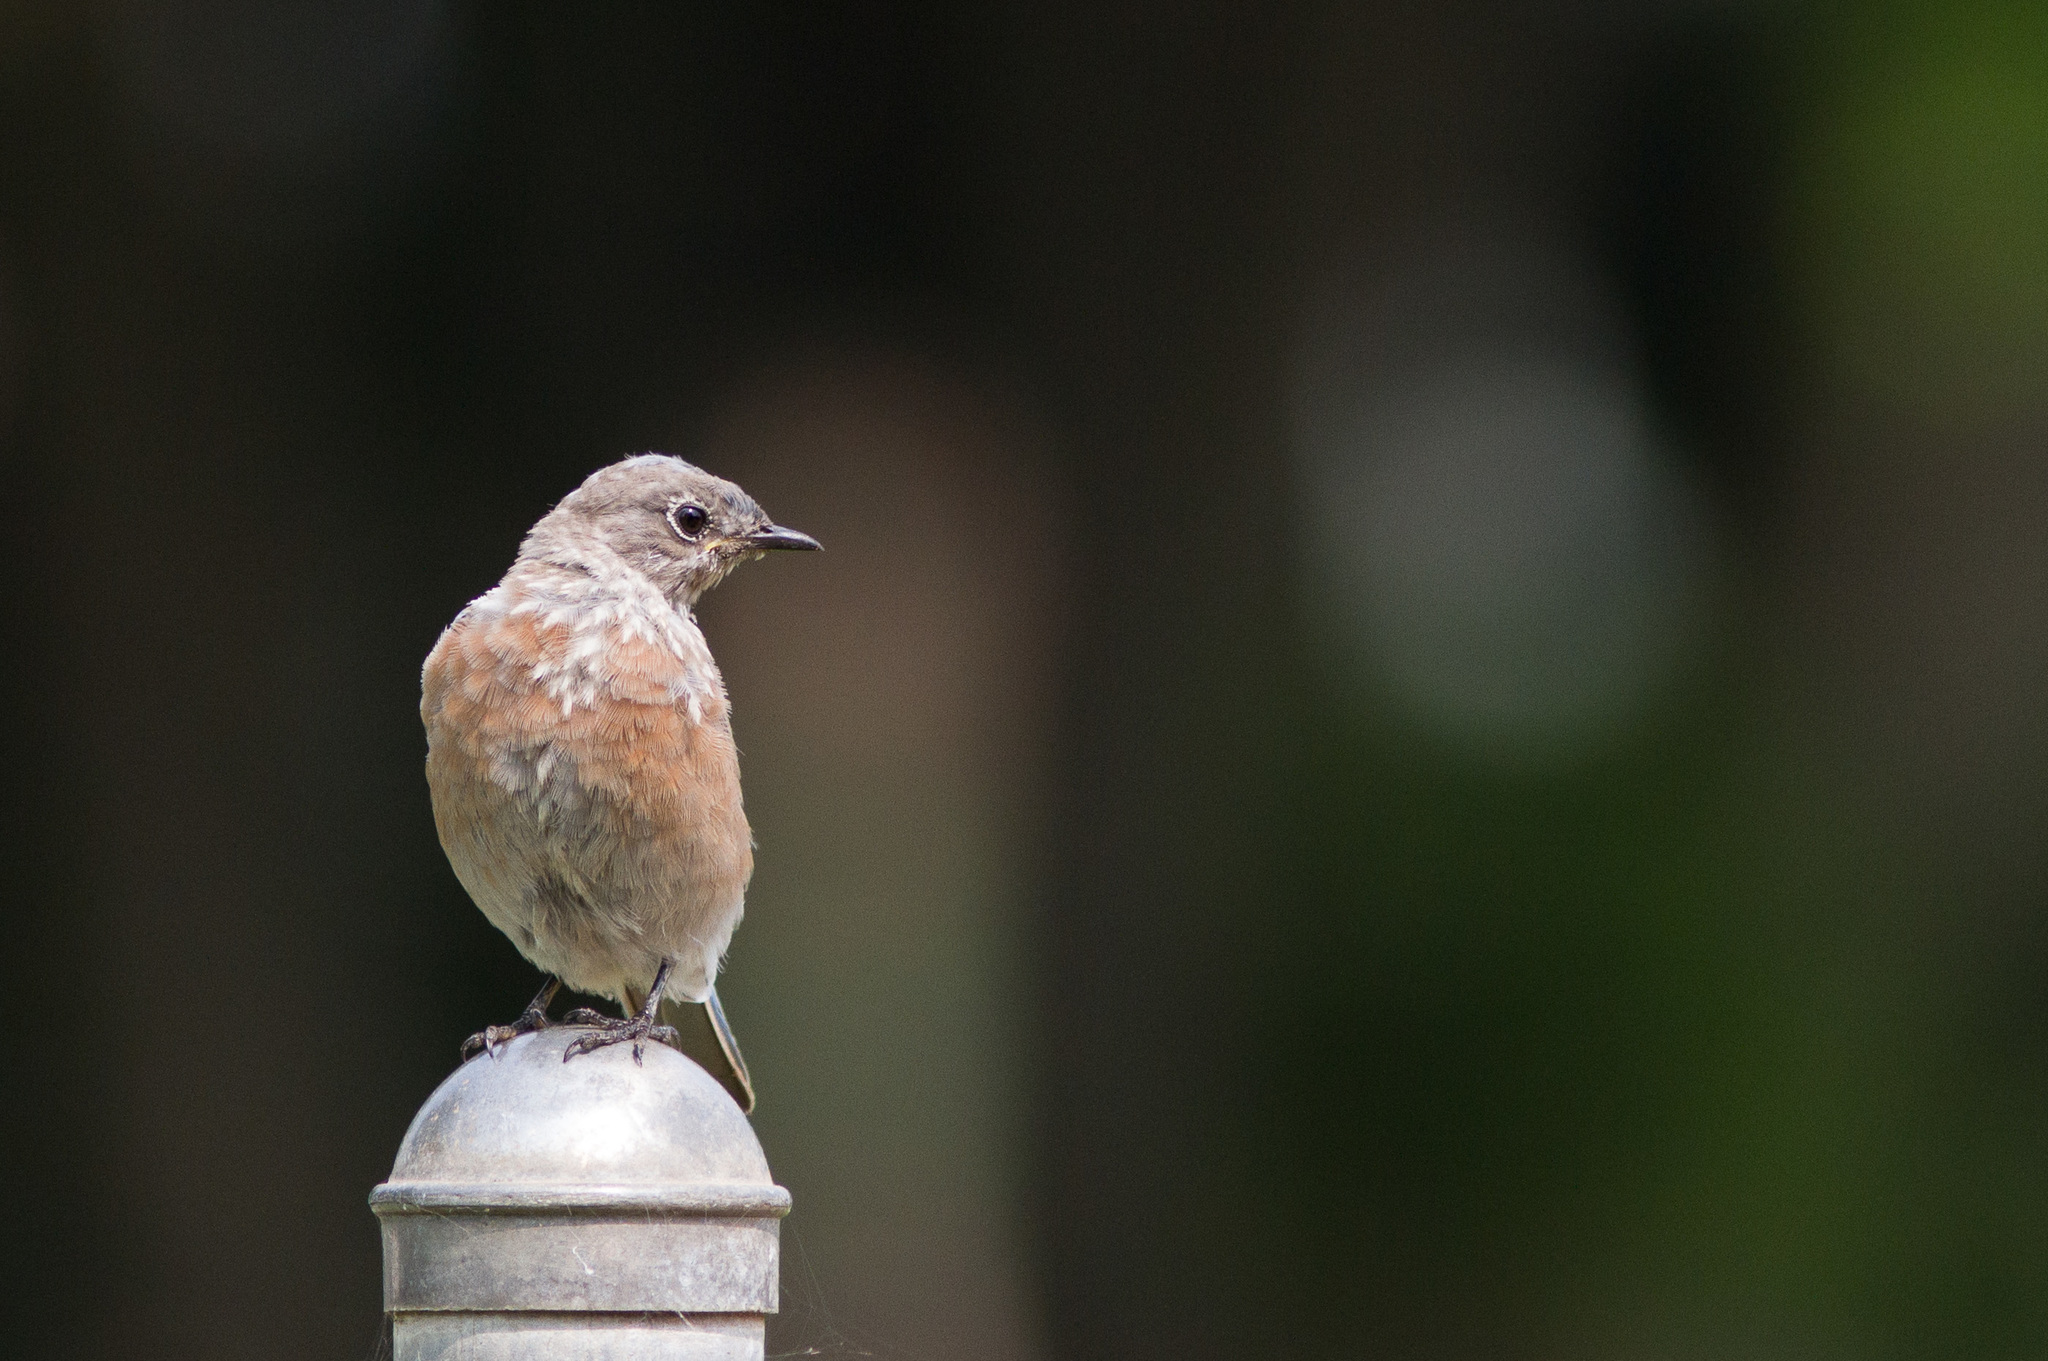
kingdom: Animalia
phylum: Chordata
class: Aves
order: Passeriformes
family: Turdidae
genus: Sialia
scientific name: Sialia mexicana
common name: Western bluebird
